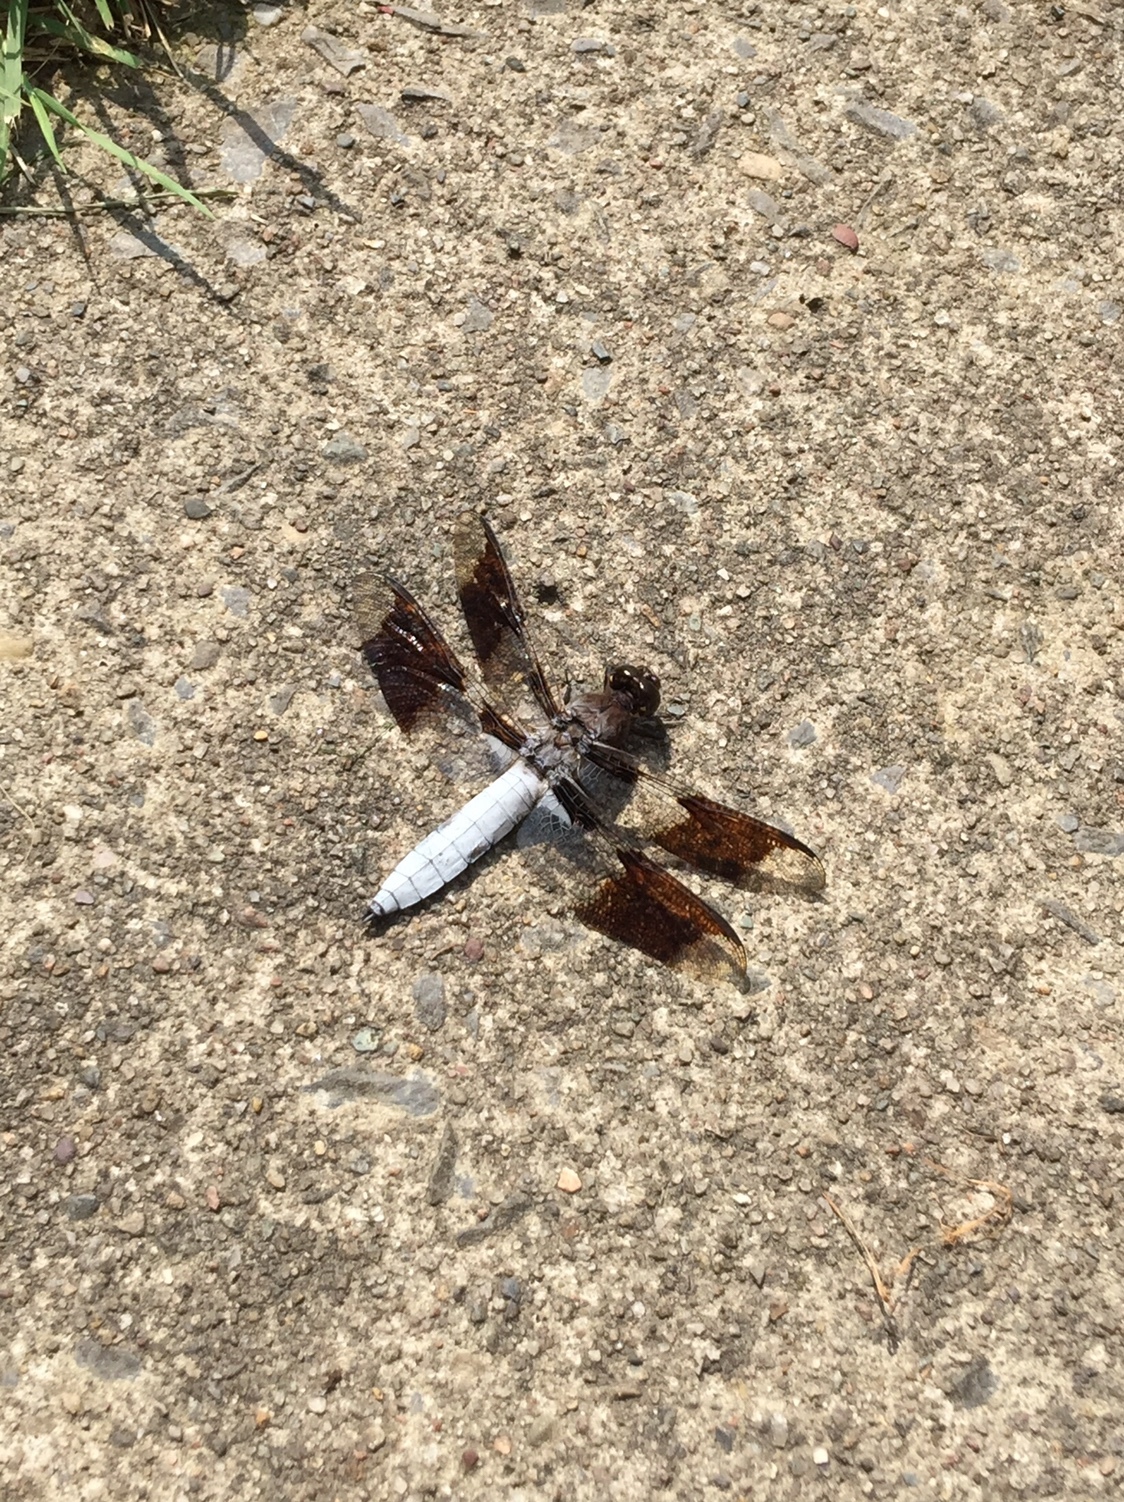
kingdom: Animalia
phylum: Arthropoda
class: Insecta
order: Odonata
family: Libellulidae
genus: Plathemis
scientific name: Plathemis lydia
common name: Common whitetail
